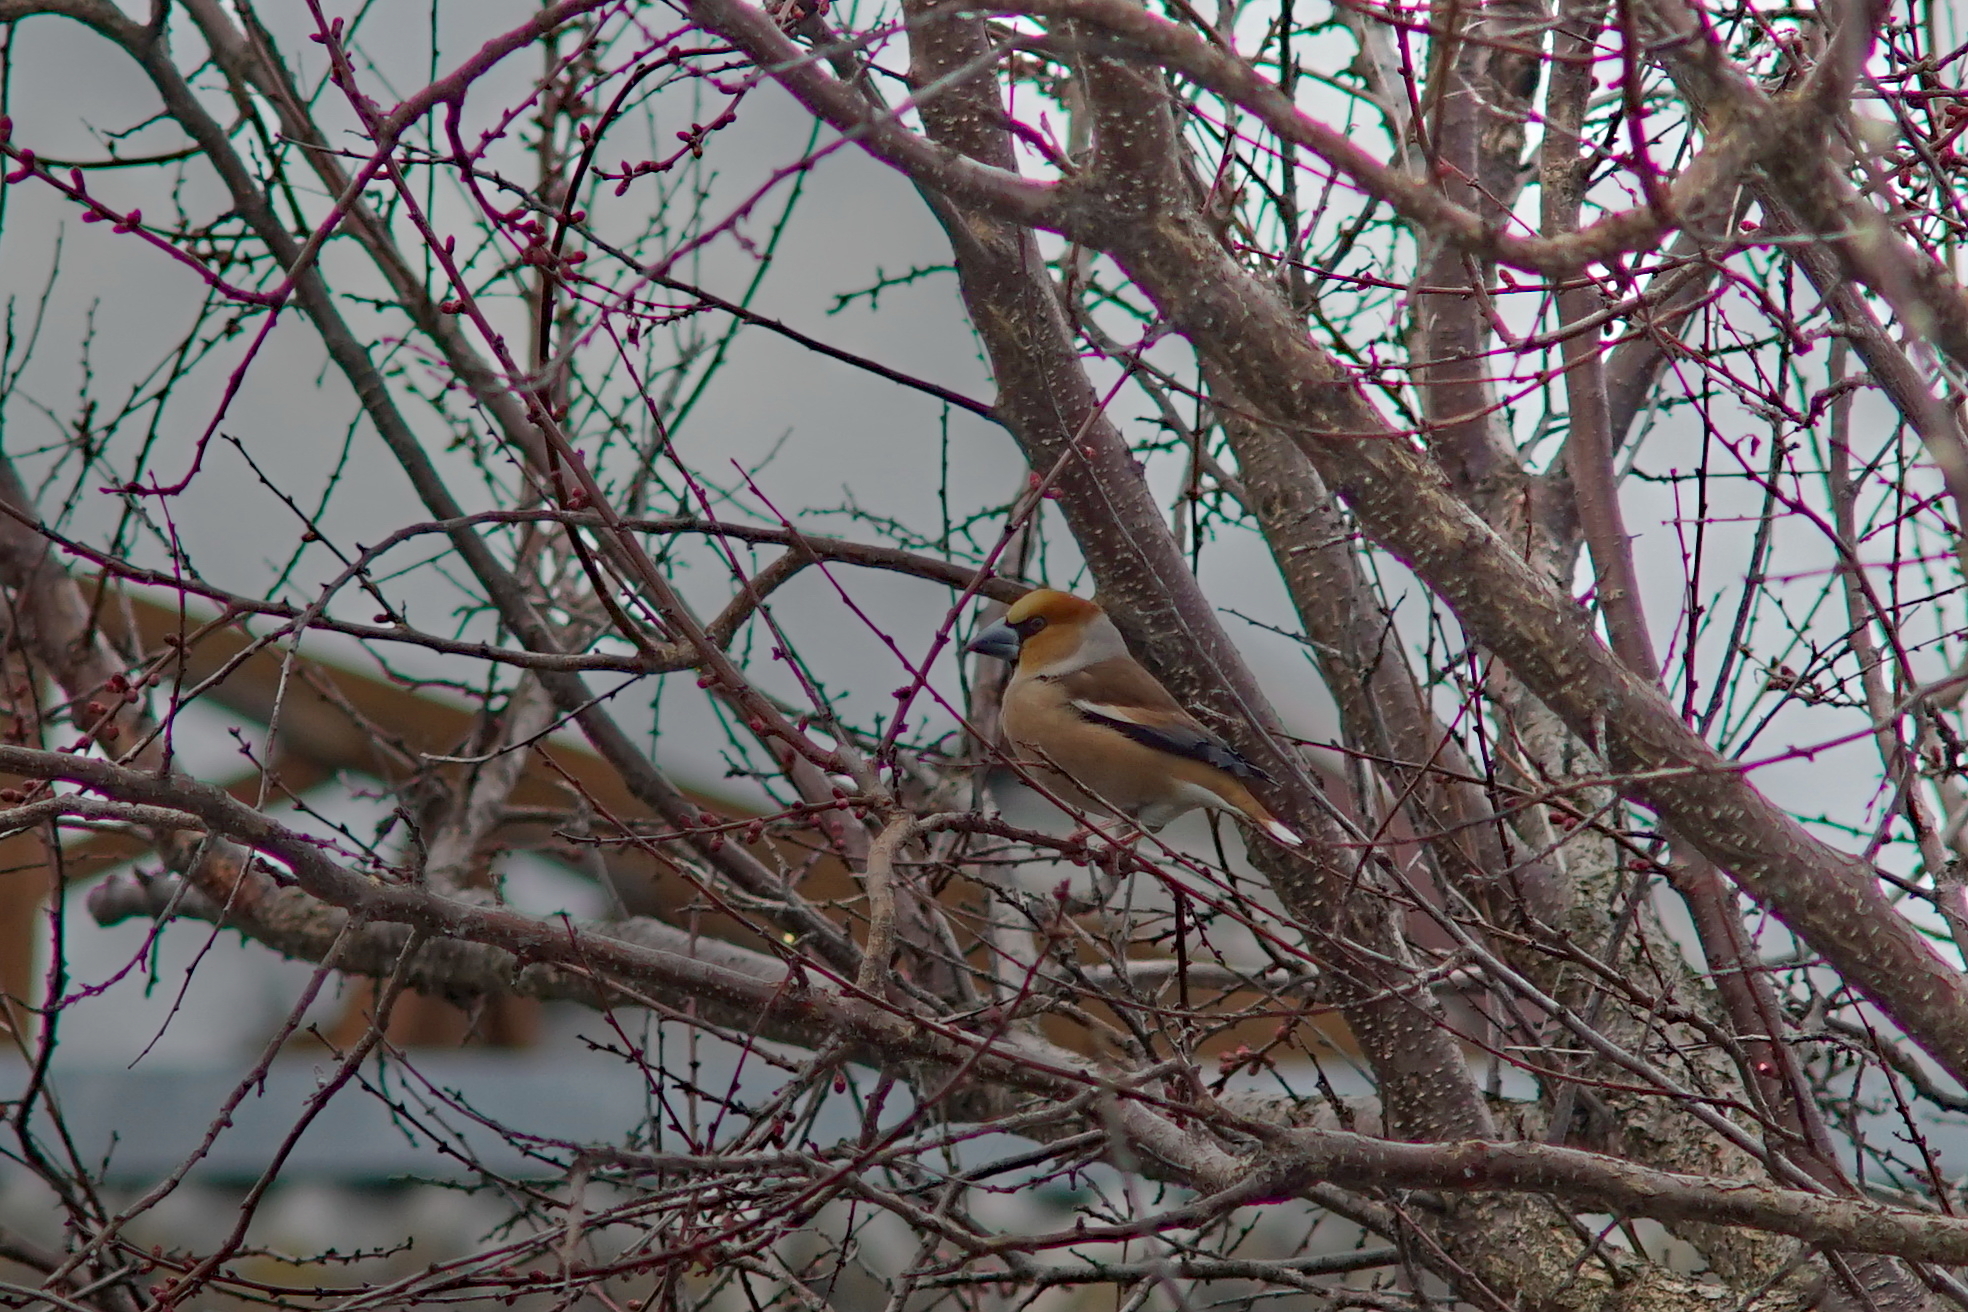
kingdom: Animalia
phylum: Chordata
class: Aves
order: Passeriformes
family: Fringillidae
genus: Coccothraustes
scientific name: Coccothraustes coccothraustes
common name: Hawfinch
